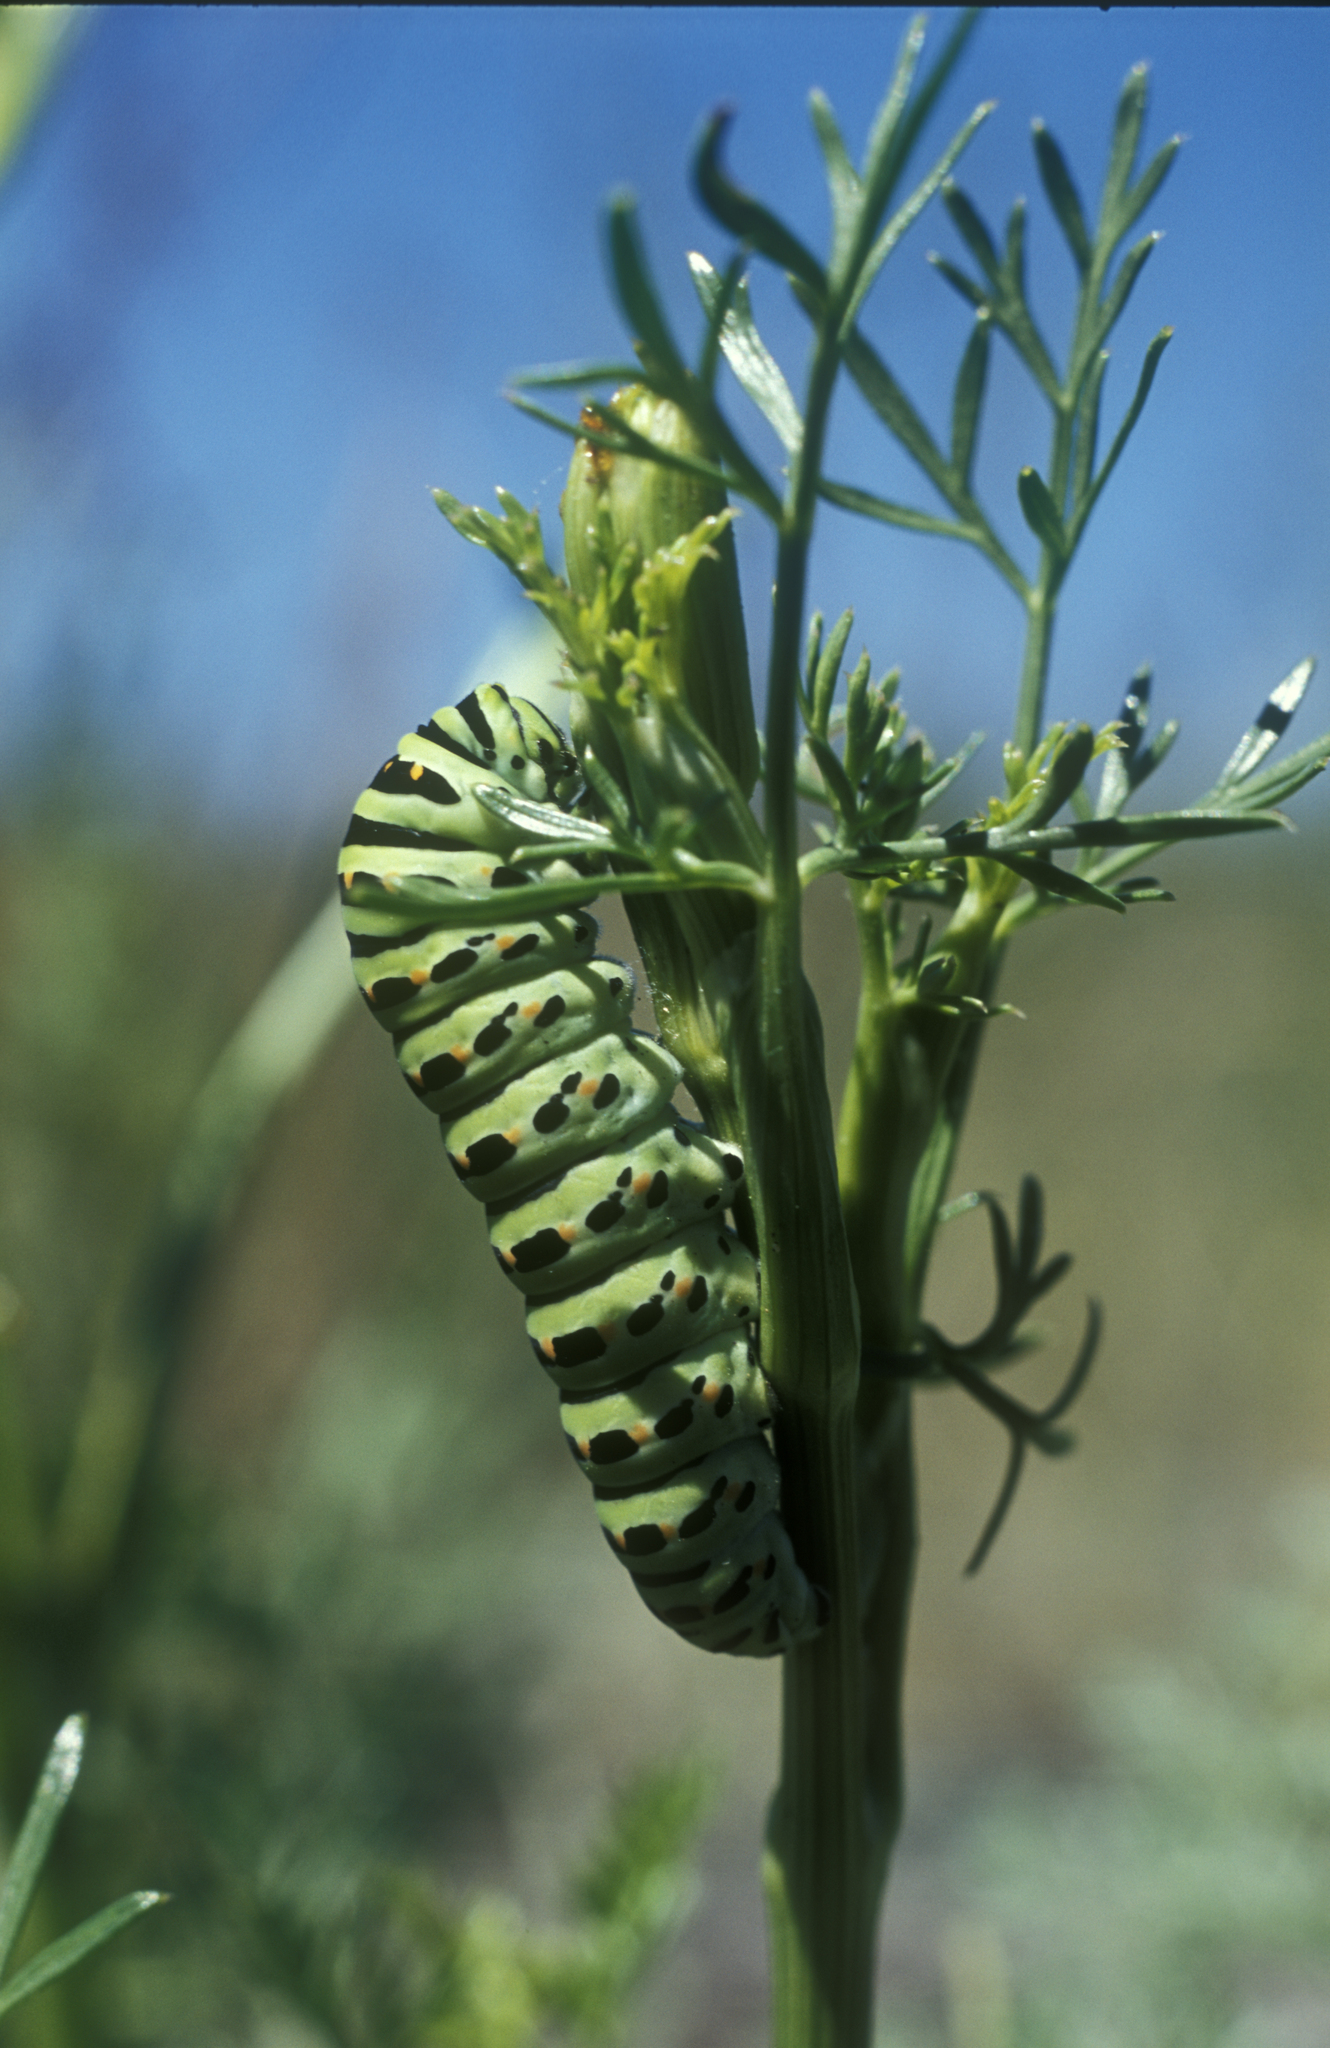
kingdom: Animalia
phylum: Arthropoda
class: Insecta
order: Lepidoptera
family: Papilionidae
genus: Papilio
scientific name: Papilio machaon
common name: Swallowtail
